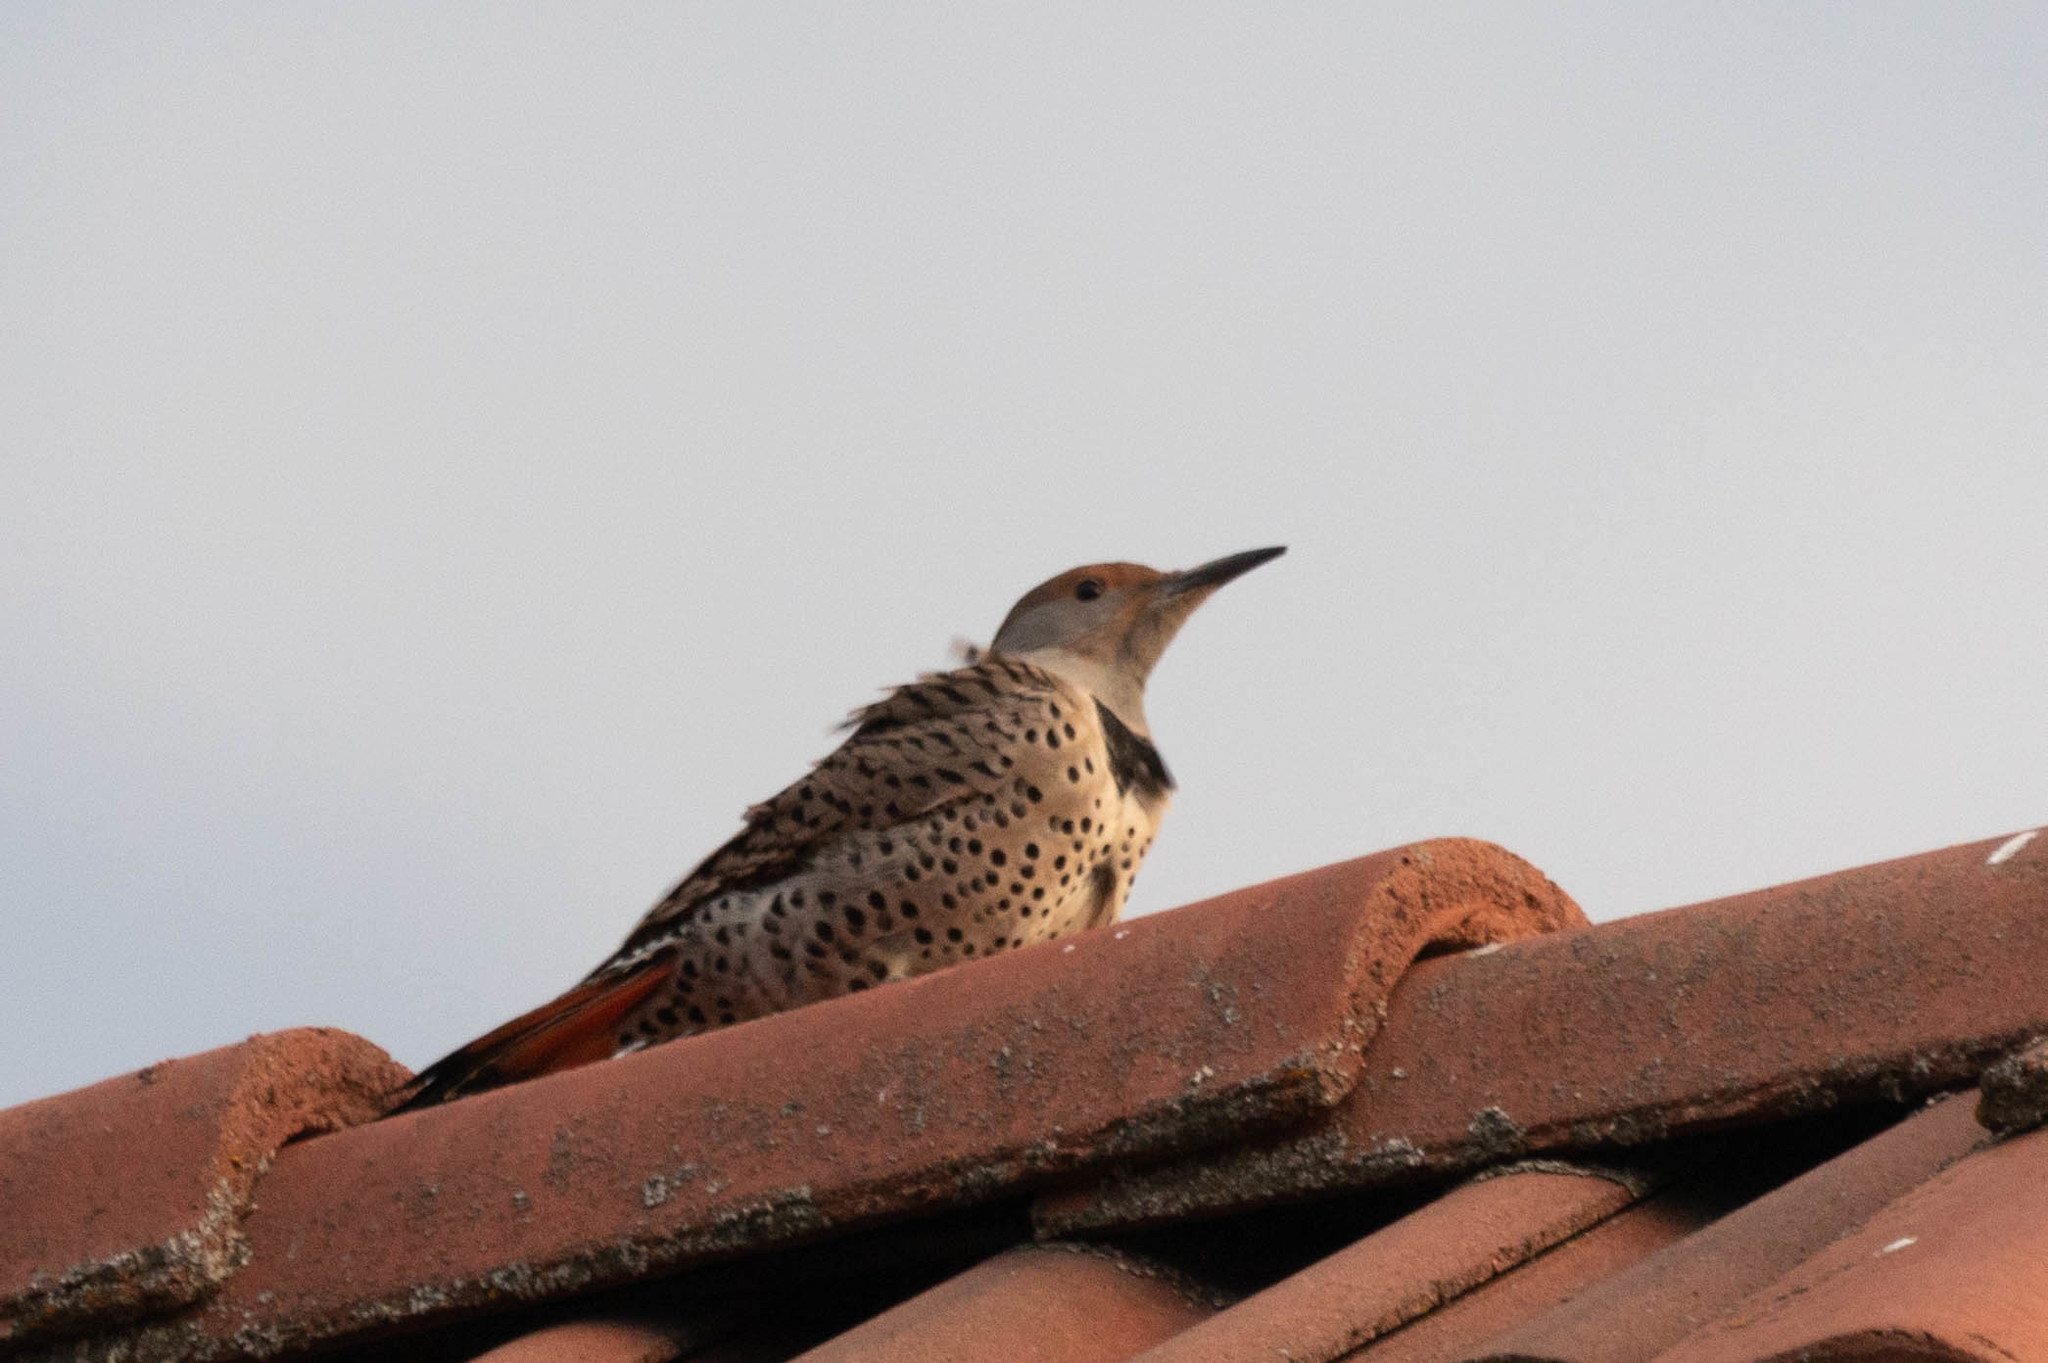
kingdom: Animalia
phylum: Chordata
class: Aves
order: Piciformes
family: Picidae
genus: Colaptes
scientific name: Colaptes auratus
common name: Northern flicker
